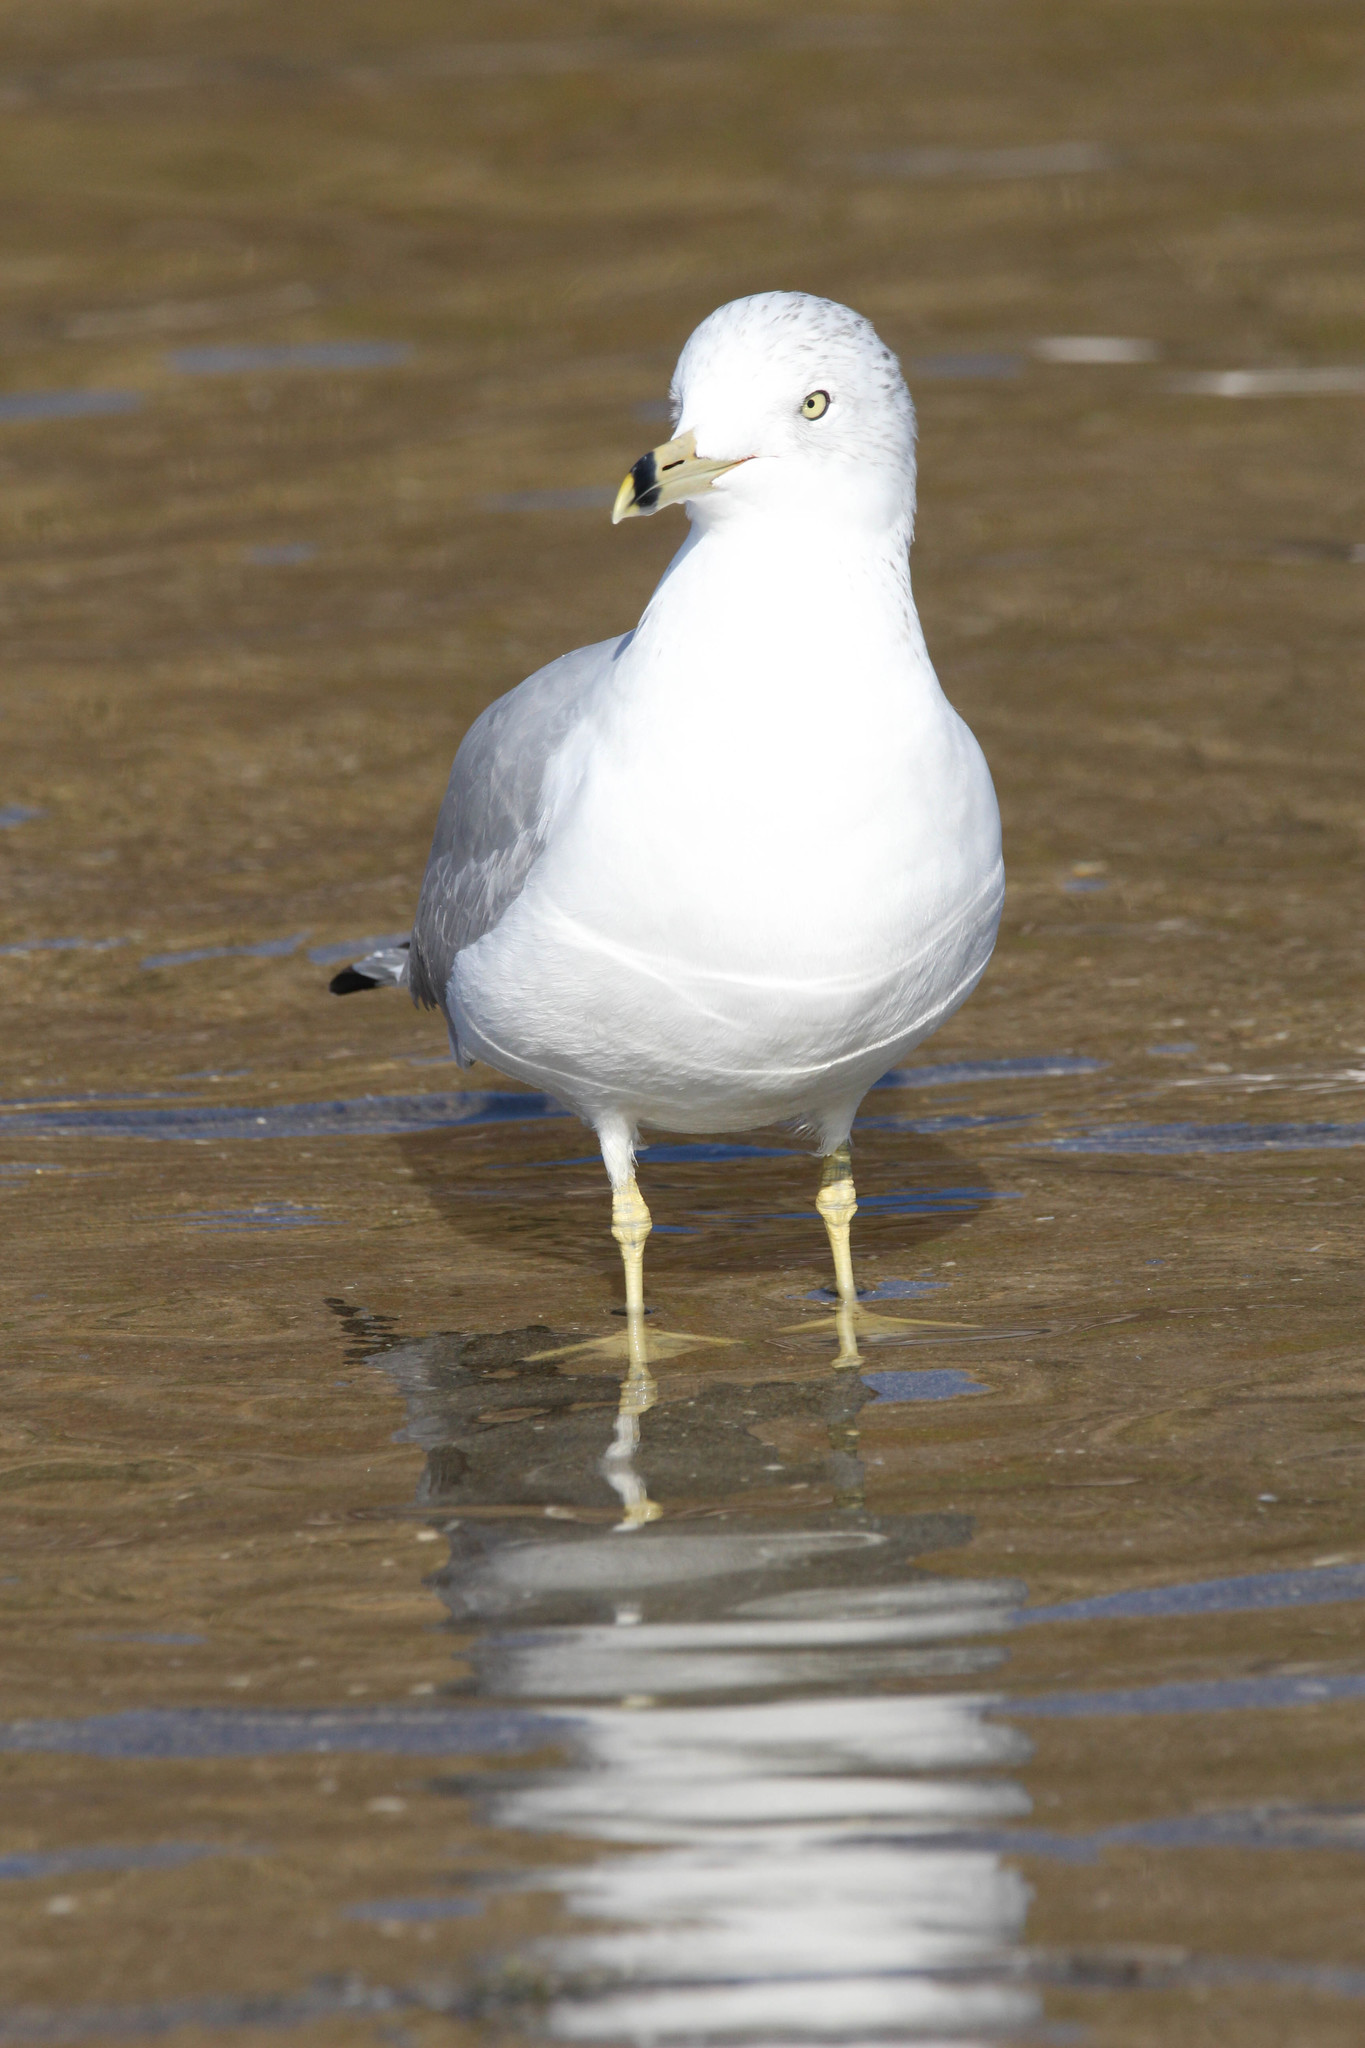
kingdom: Animalia
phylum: Chordata
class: Aves
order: Charadriiformes
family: Laridae
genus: Larus
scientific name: Larus delawarensis
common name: Ring-billed gull
